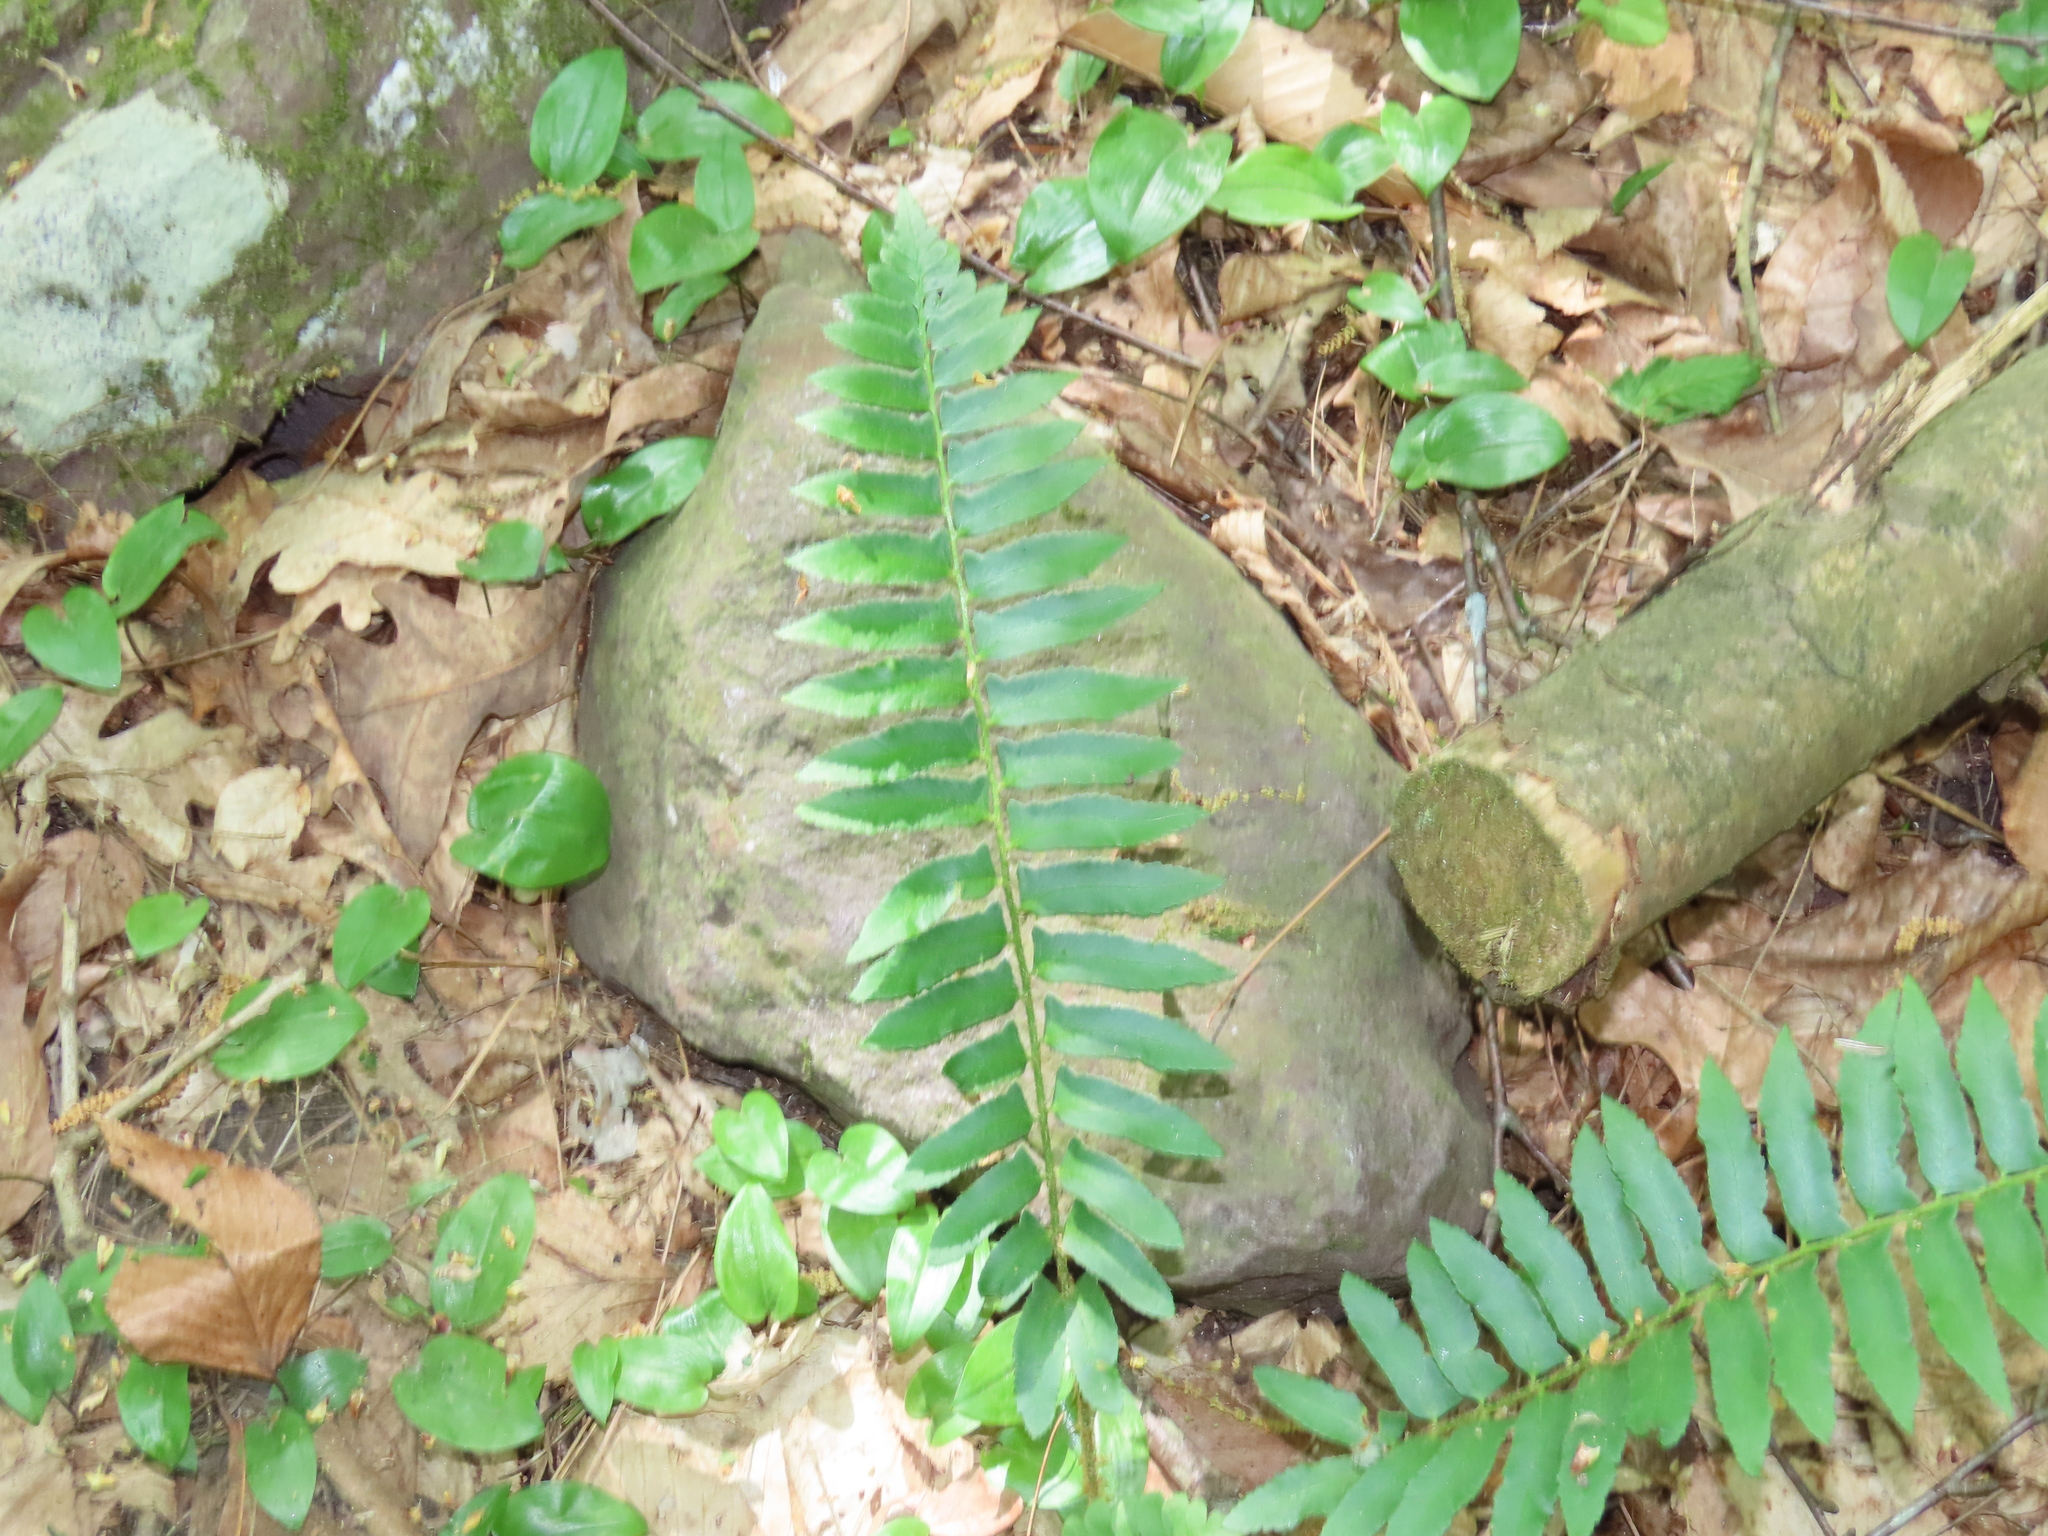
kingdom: Plantae
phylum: Tracheophyta
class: Polypodiopsida
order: Polypodiales
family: Dryopteridaceae
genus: Polystichum
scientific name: Polystichum acrostichoides
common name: Christmas fern
